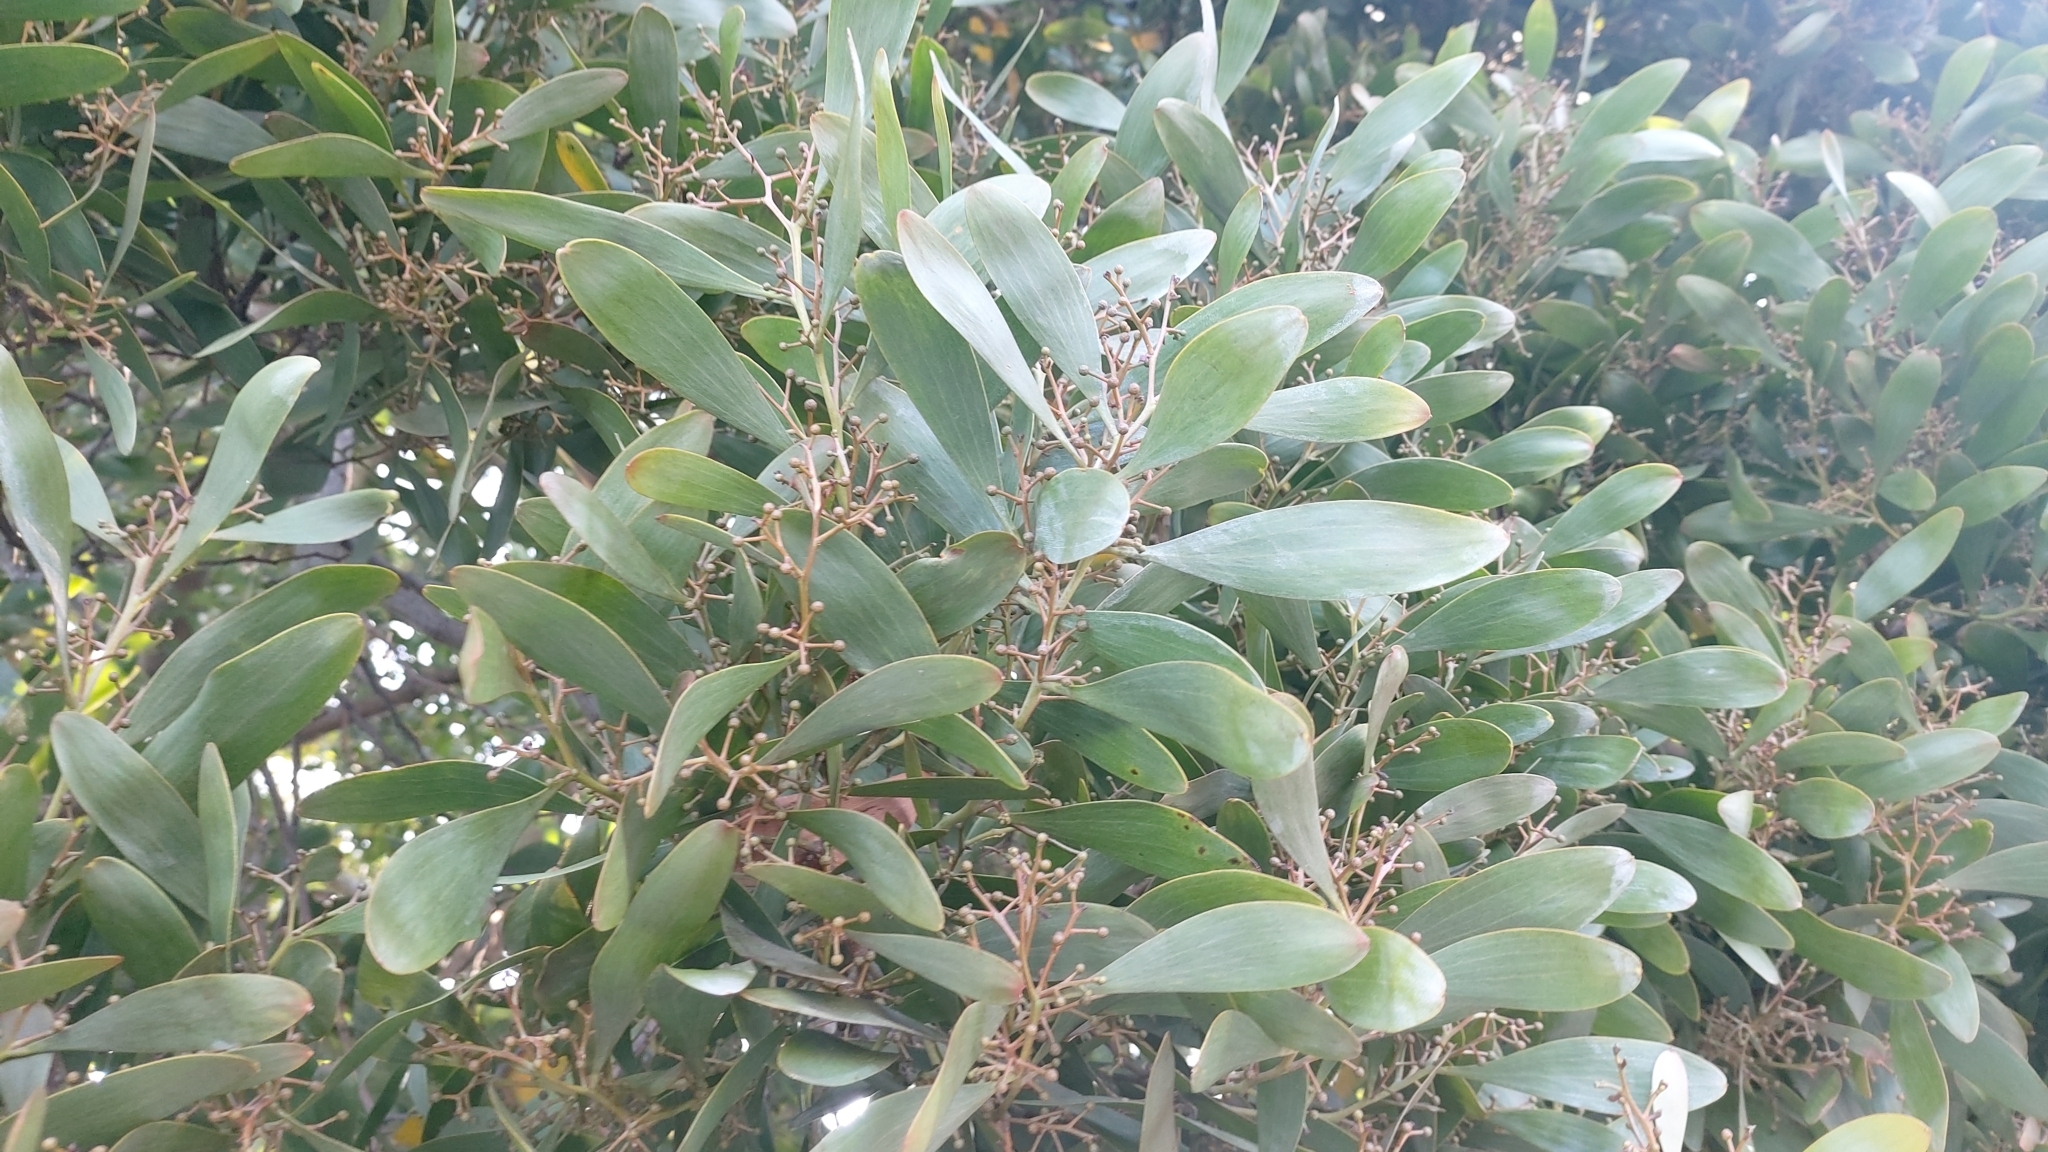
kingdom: Plantae
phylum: Tracheophyta
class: Magnoliopsida
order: Fabales
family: Fabaceae
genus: Acacia
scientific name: Acacia melanoxylon
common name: Blackwood
